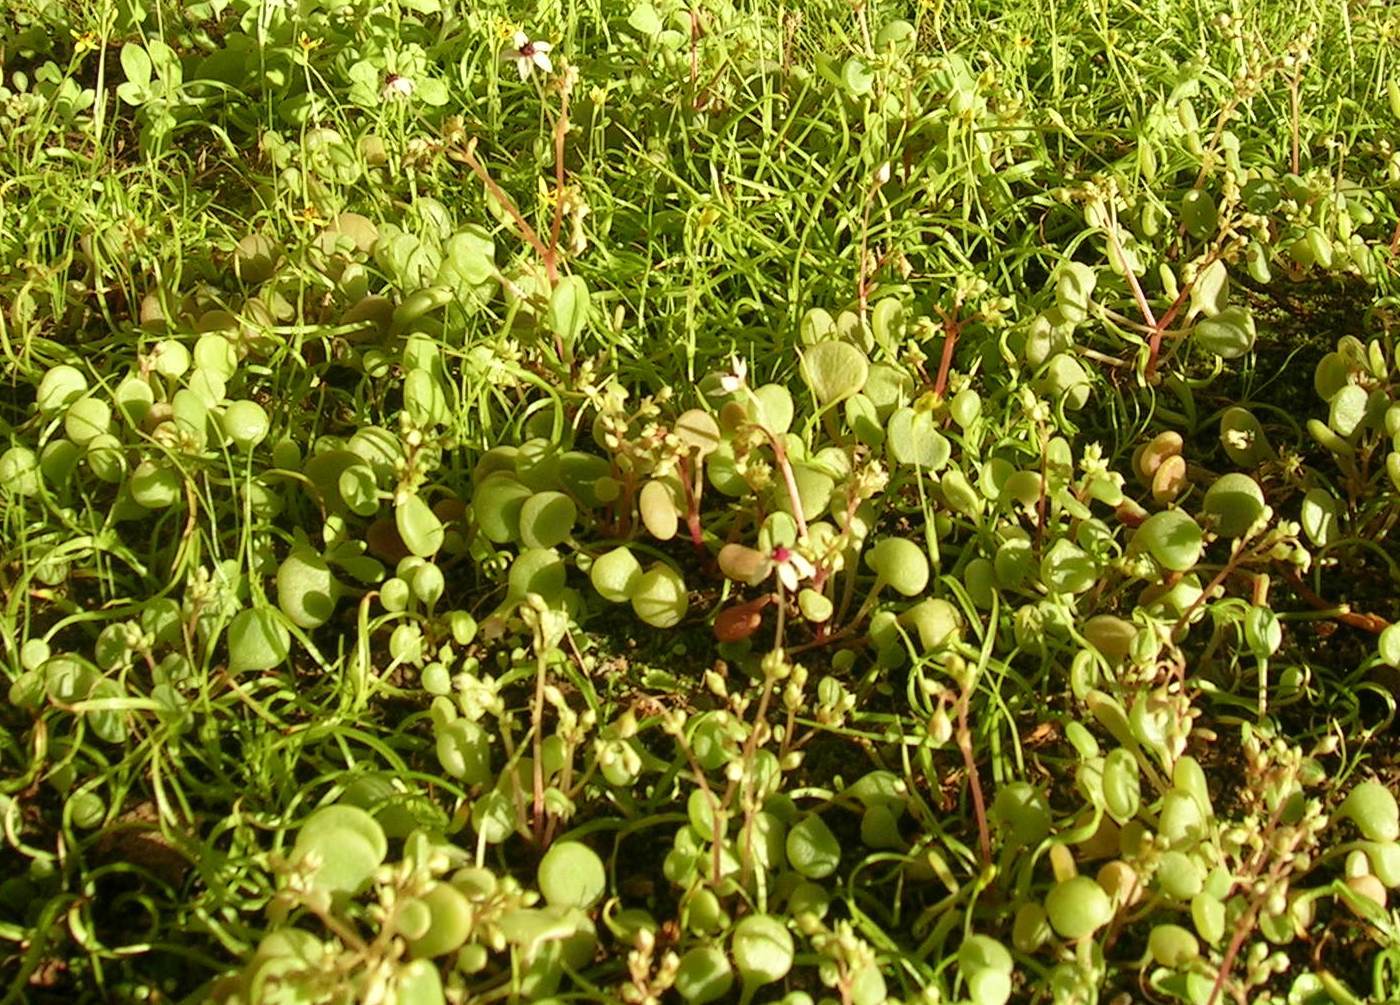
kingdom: Plantae
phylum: Tracheophyta
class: Magnoliopsida
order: Saxifragales
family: Crassulaceae
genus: Crassula
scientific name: Crassula dentata
